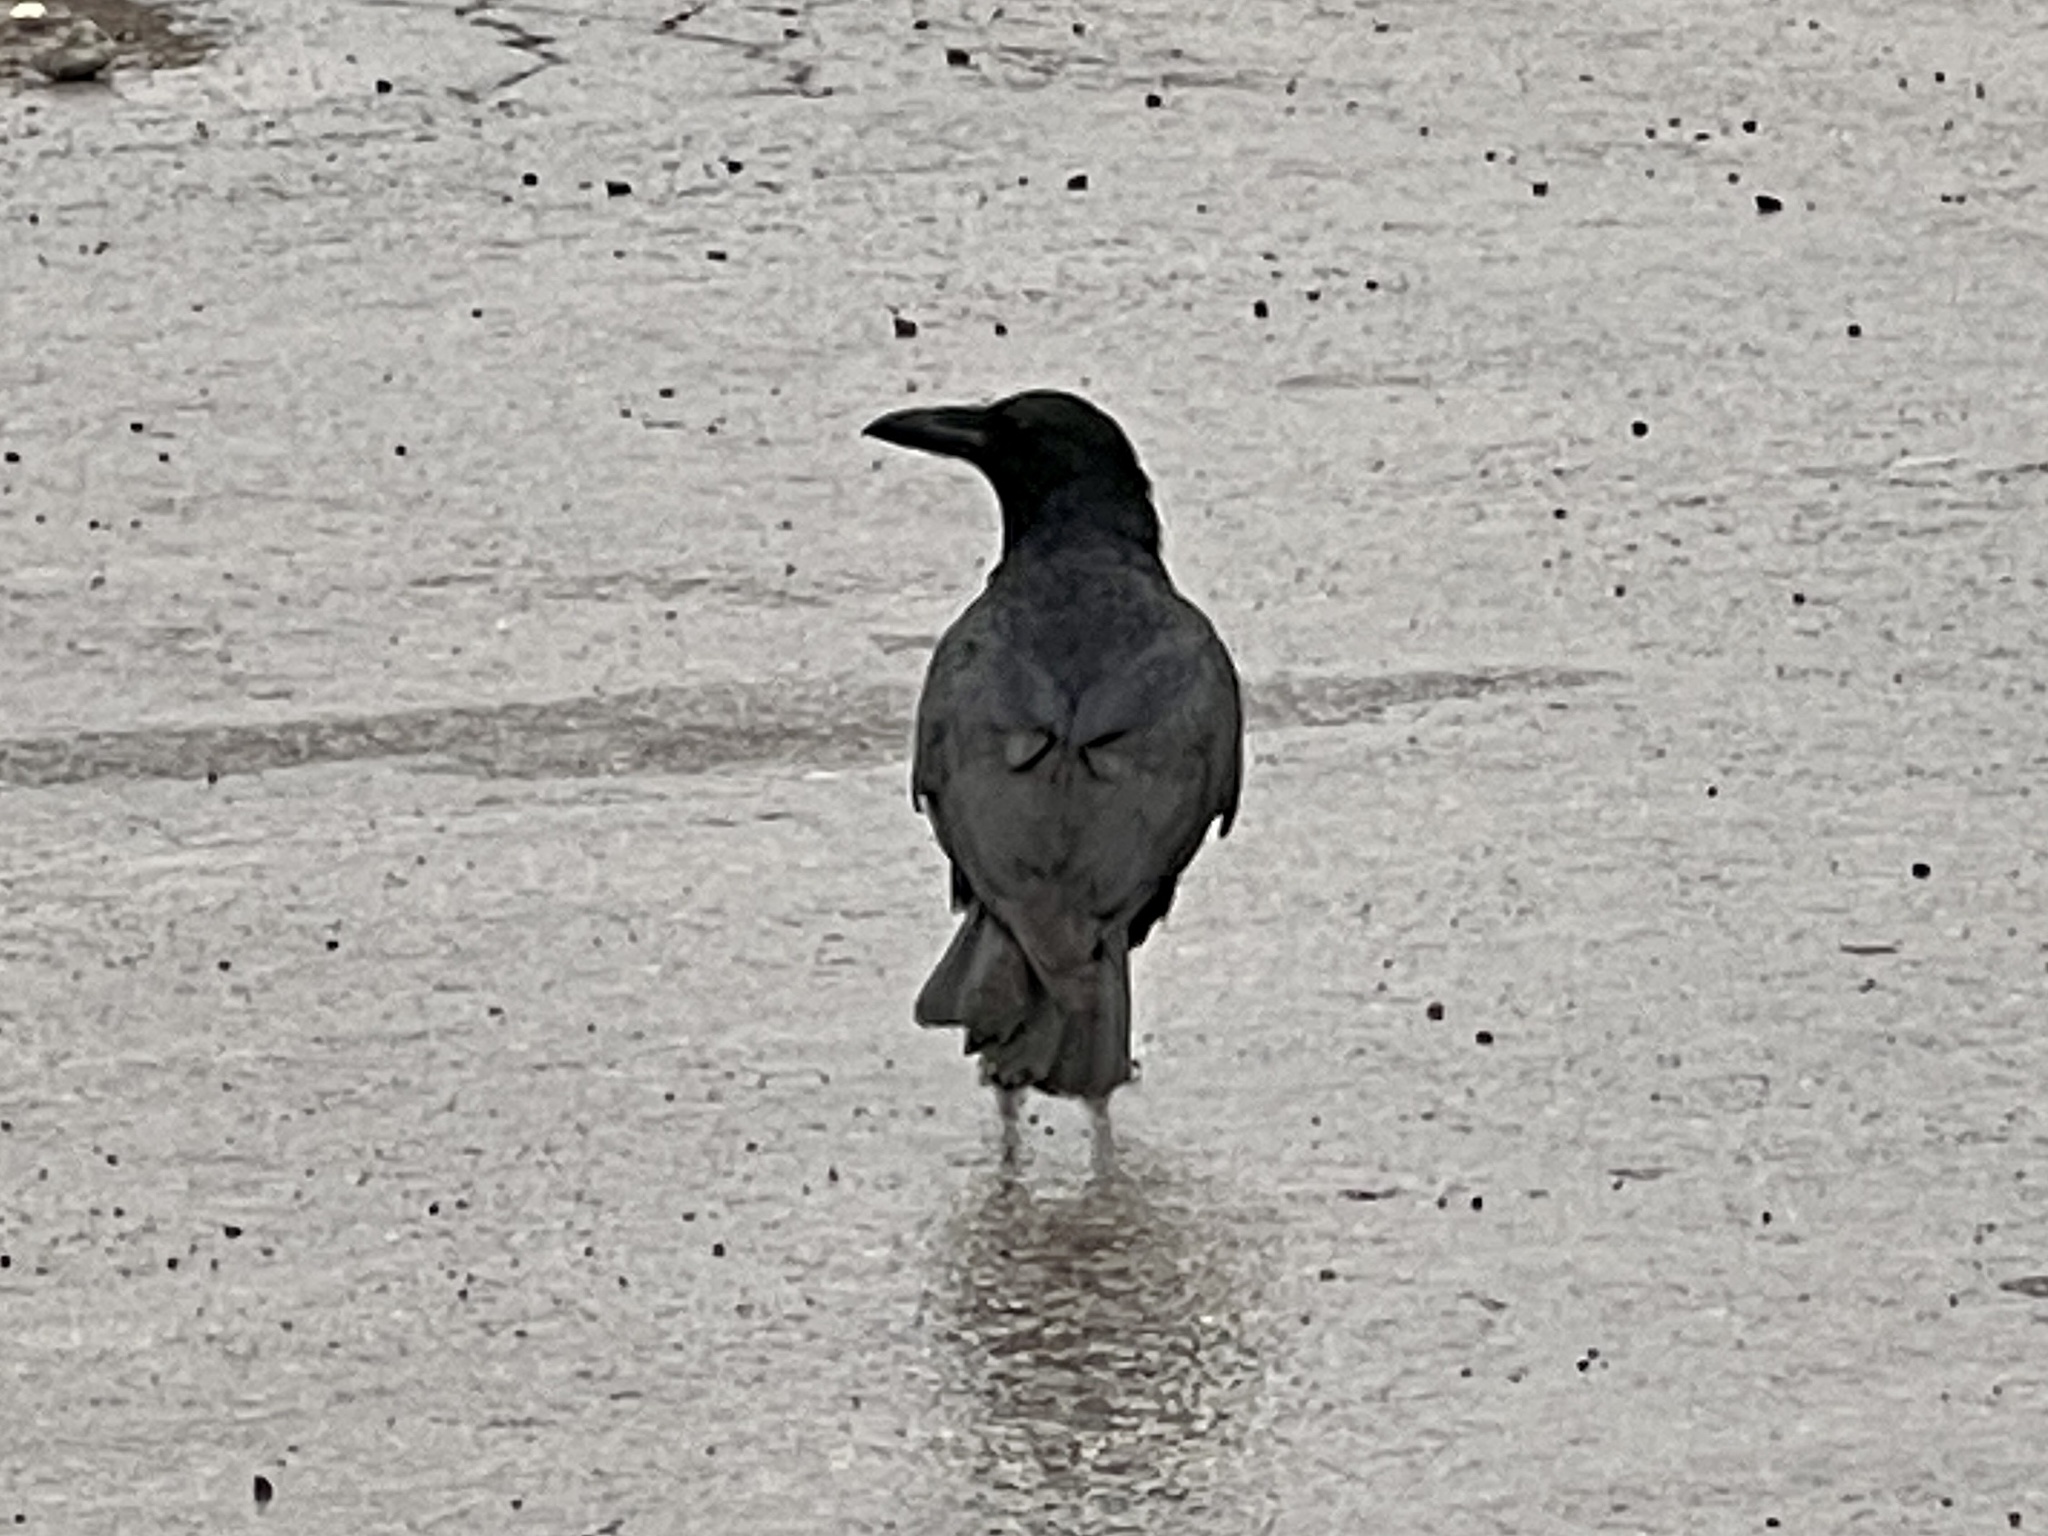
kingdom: Animalia
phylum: Chordata
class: Aves
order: Passeriformes
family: Corvidae
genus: Corvus
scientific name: Corvus corax
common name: Common raven
